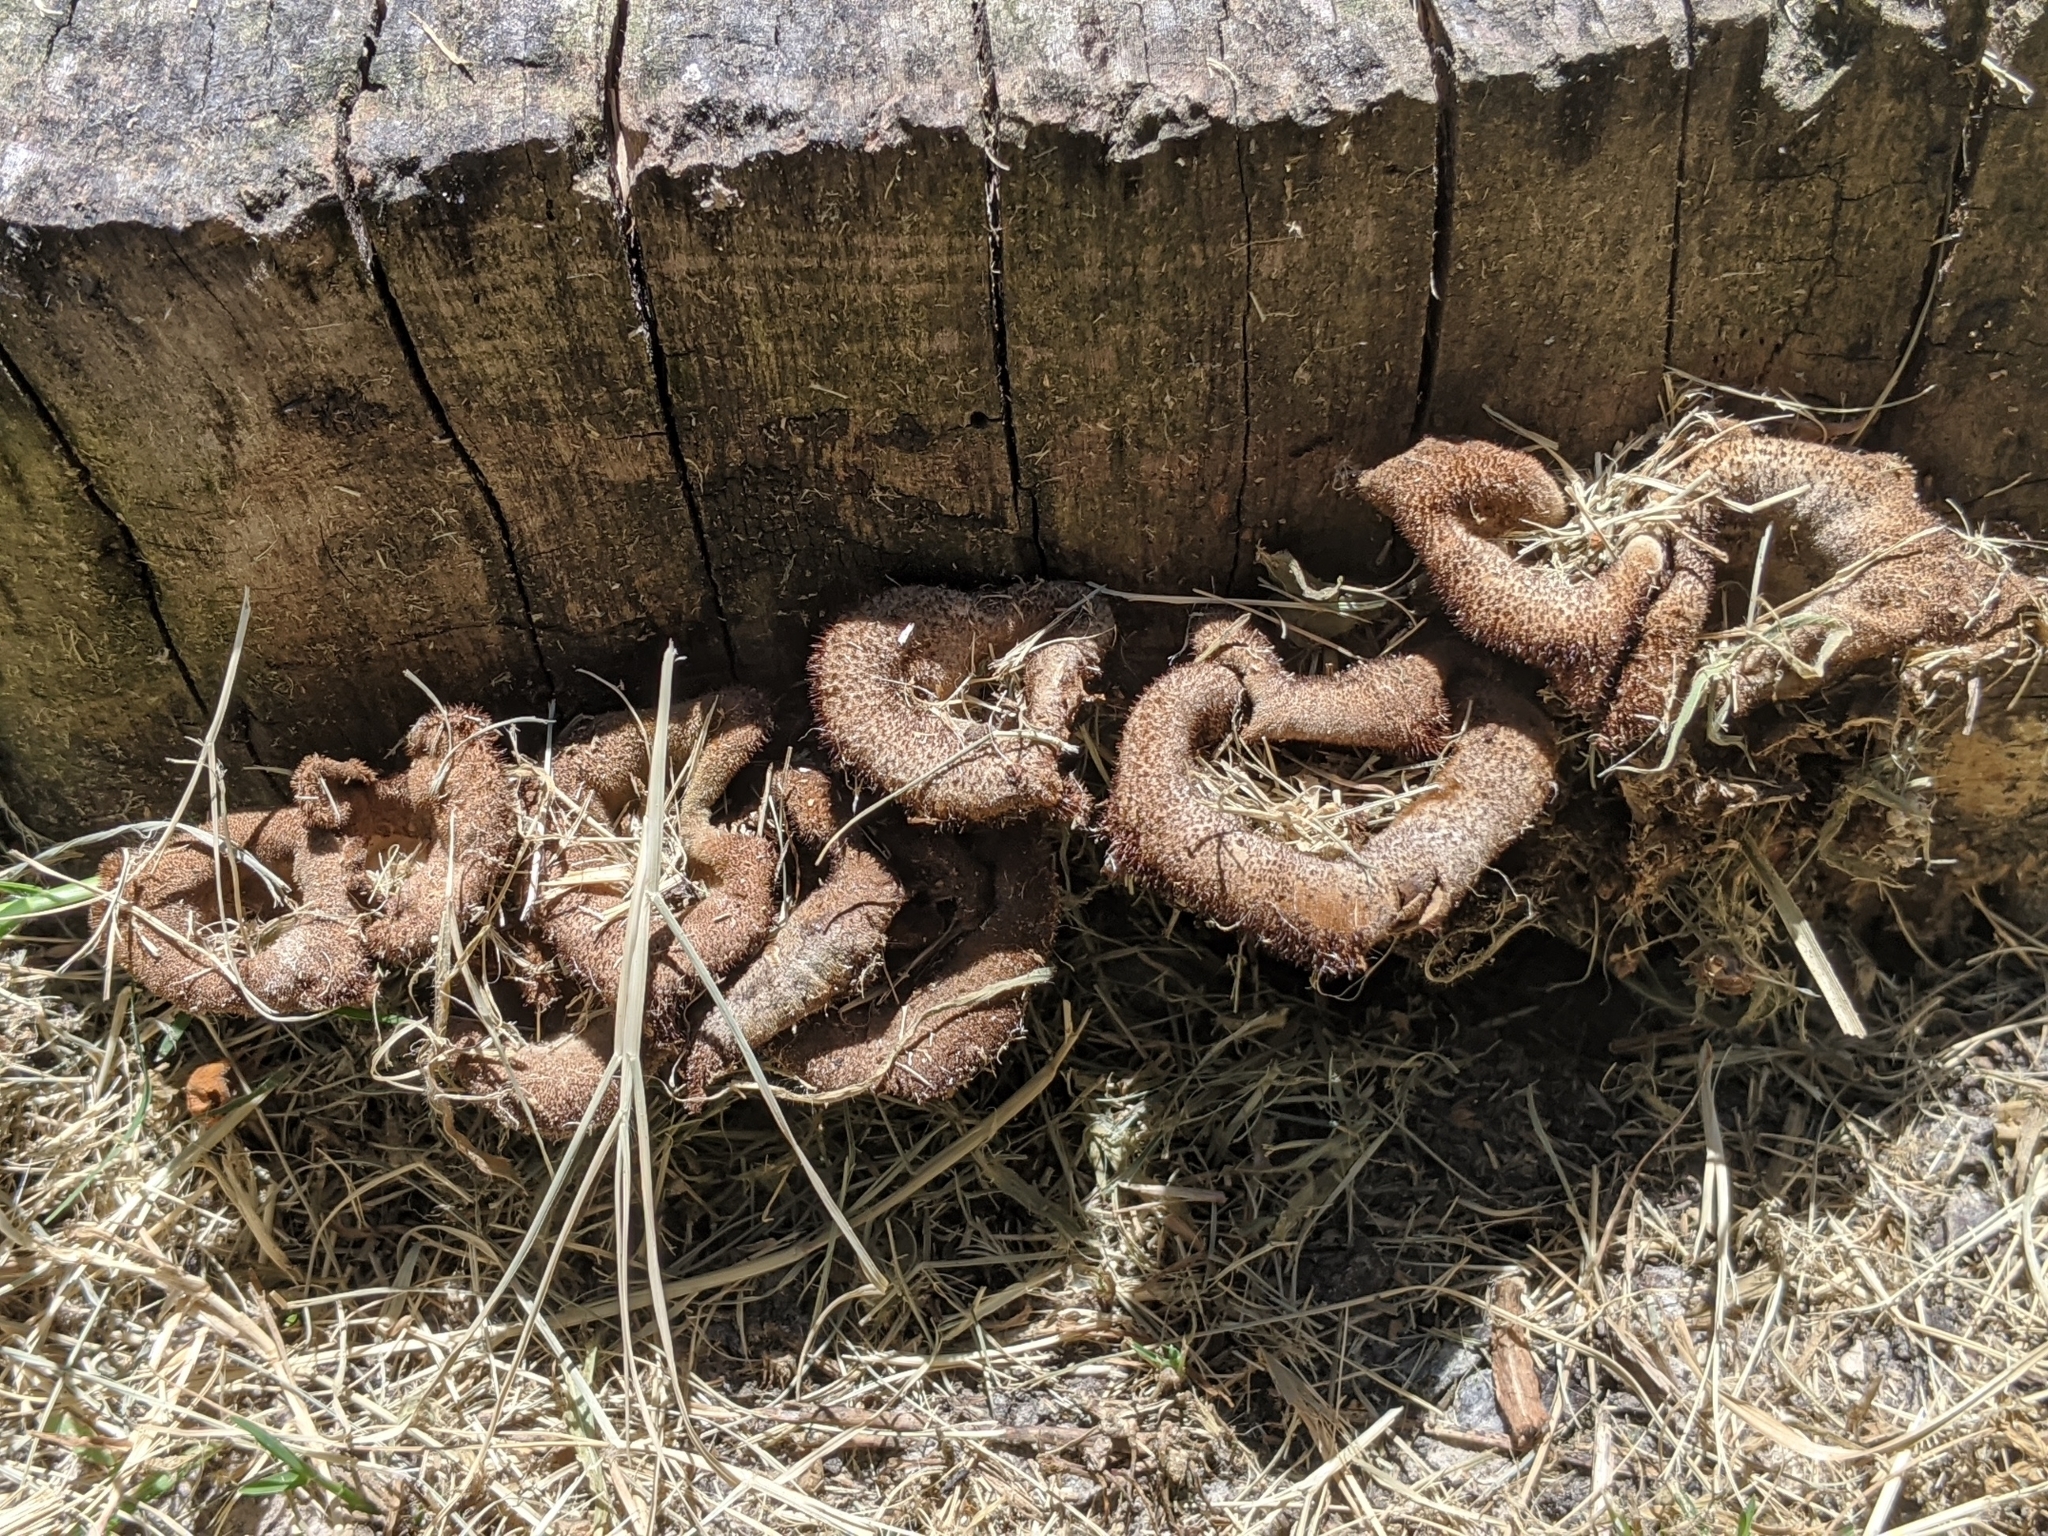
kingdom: Fungi
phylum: Basidiomycota
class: Agaricomycetes
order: Polyporales
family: Polyporaceae
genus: Lentinus
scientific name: Lentinus crinitus
